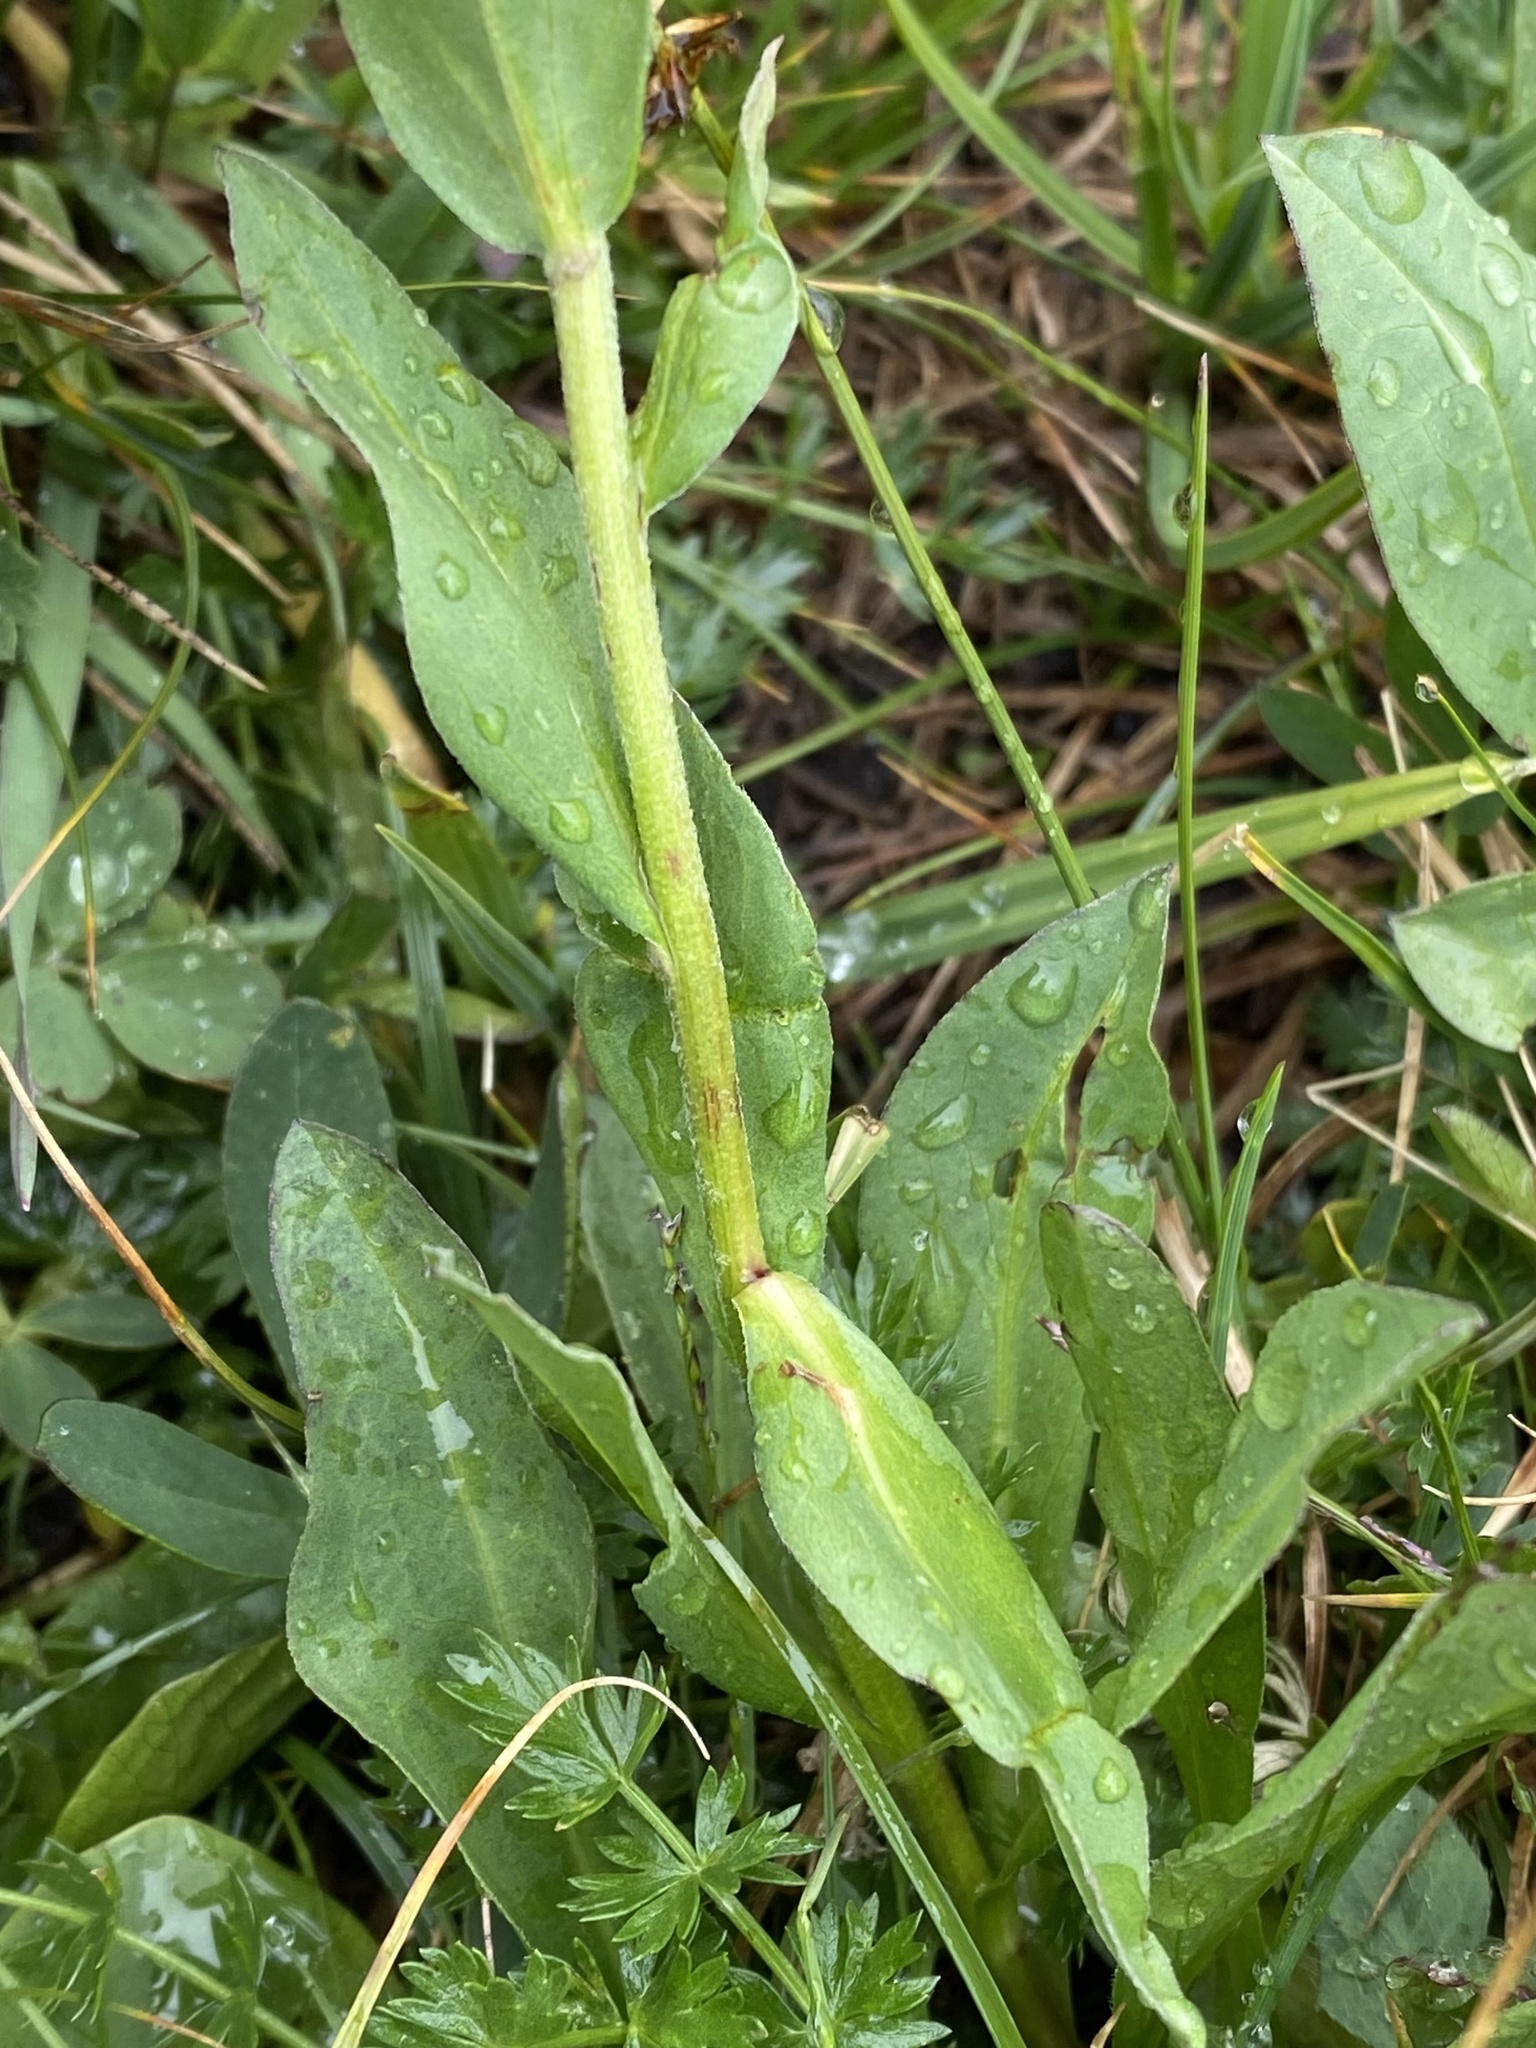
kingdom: Plantae
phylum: Tracheophyta
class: Magnoliopsida
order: Asterales
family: Asteraceae
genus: Erigeron
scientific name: Erigeron glacialis
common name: Subalpine fleabane
